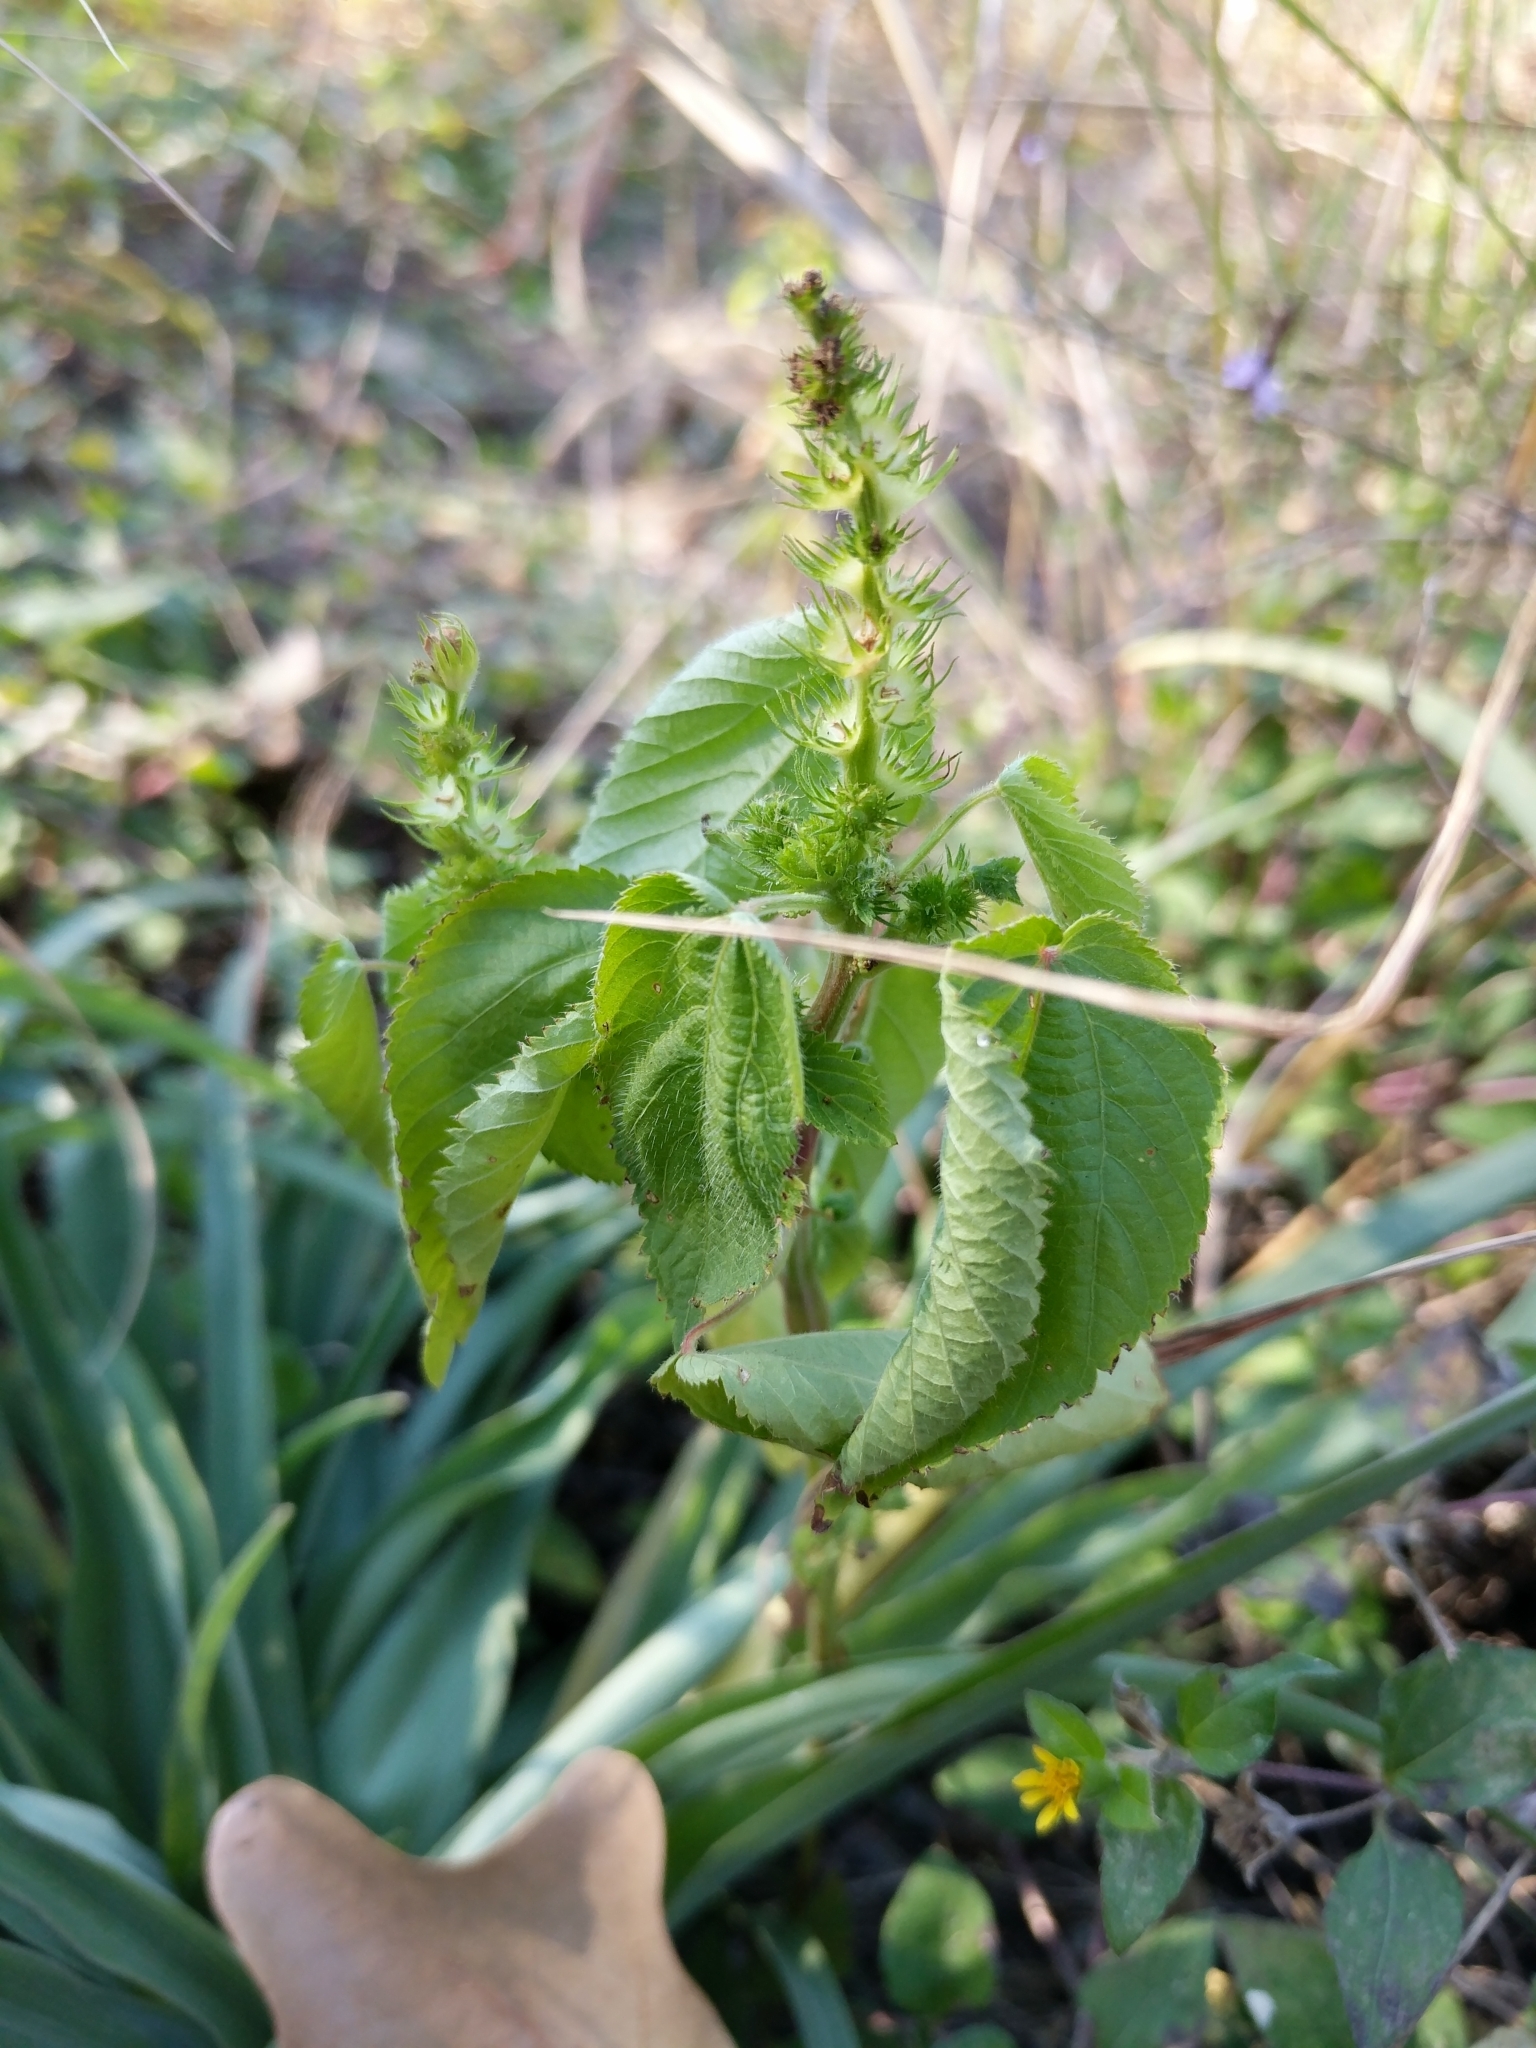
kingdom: Plantae
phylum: Tracheophyta
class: Magnoliopsida
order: Malpighiales
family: Euphorbiaceae
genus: Acalypha
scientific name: Acalypha ostryifolia
